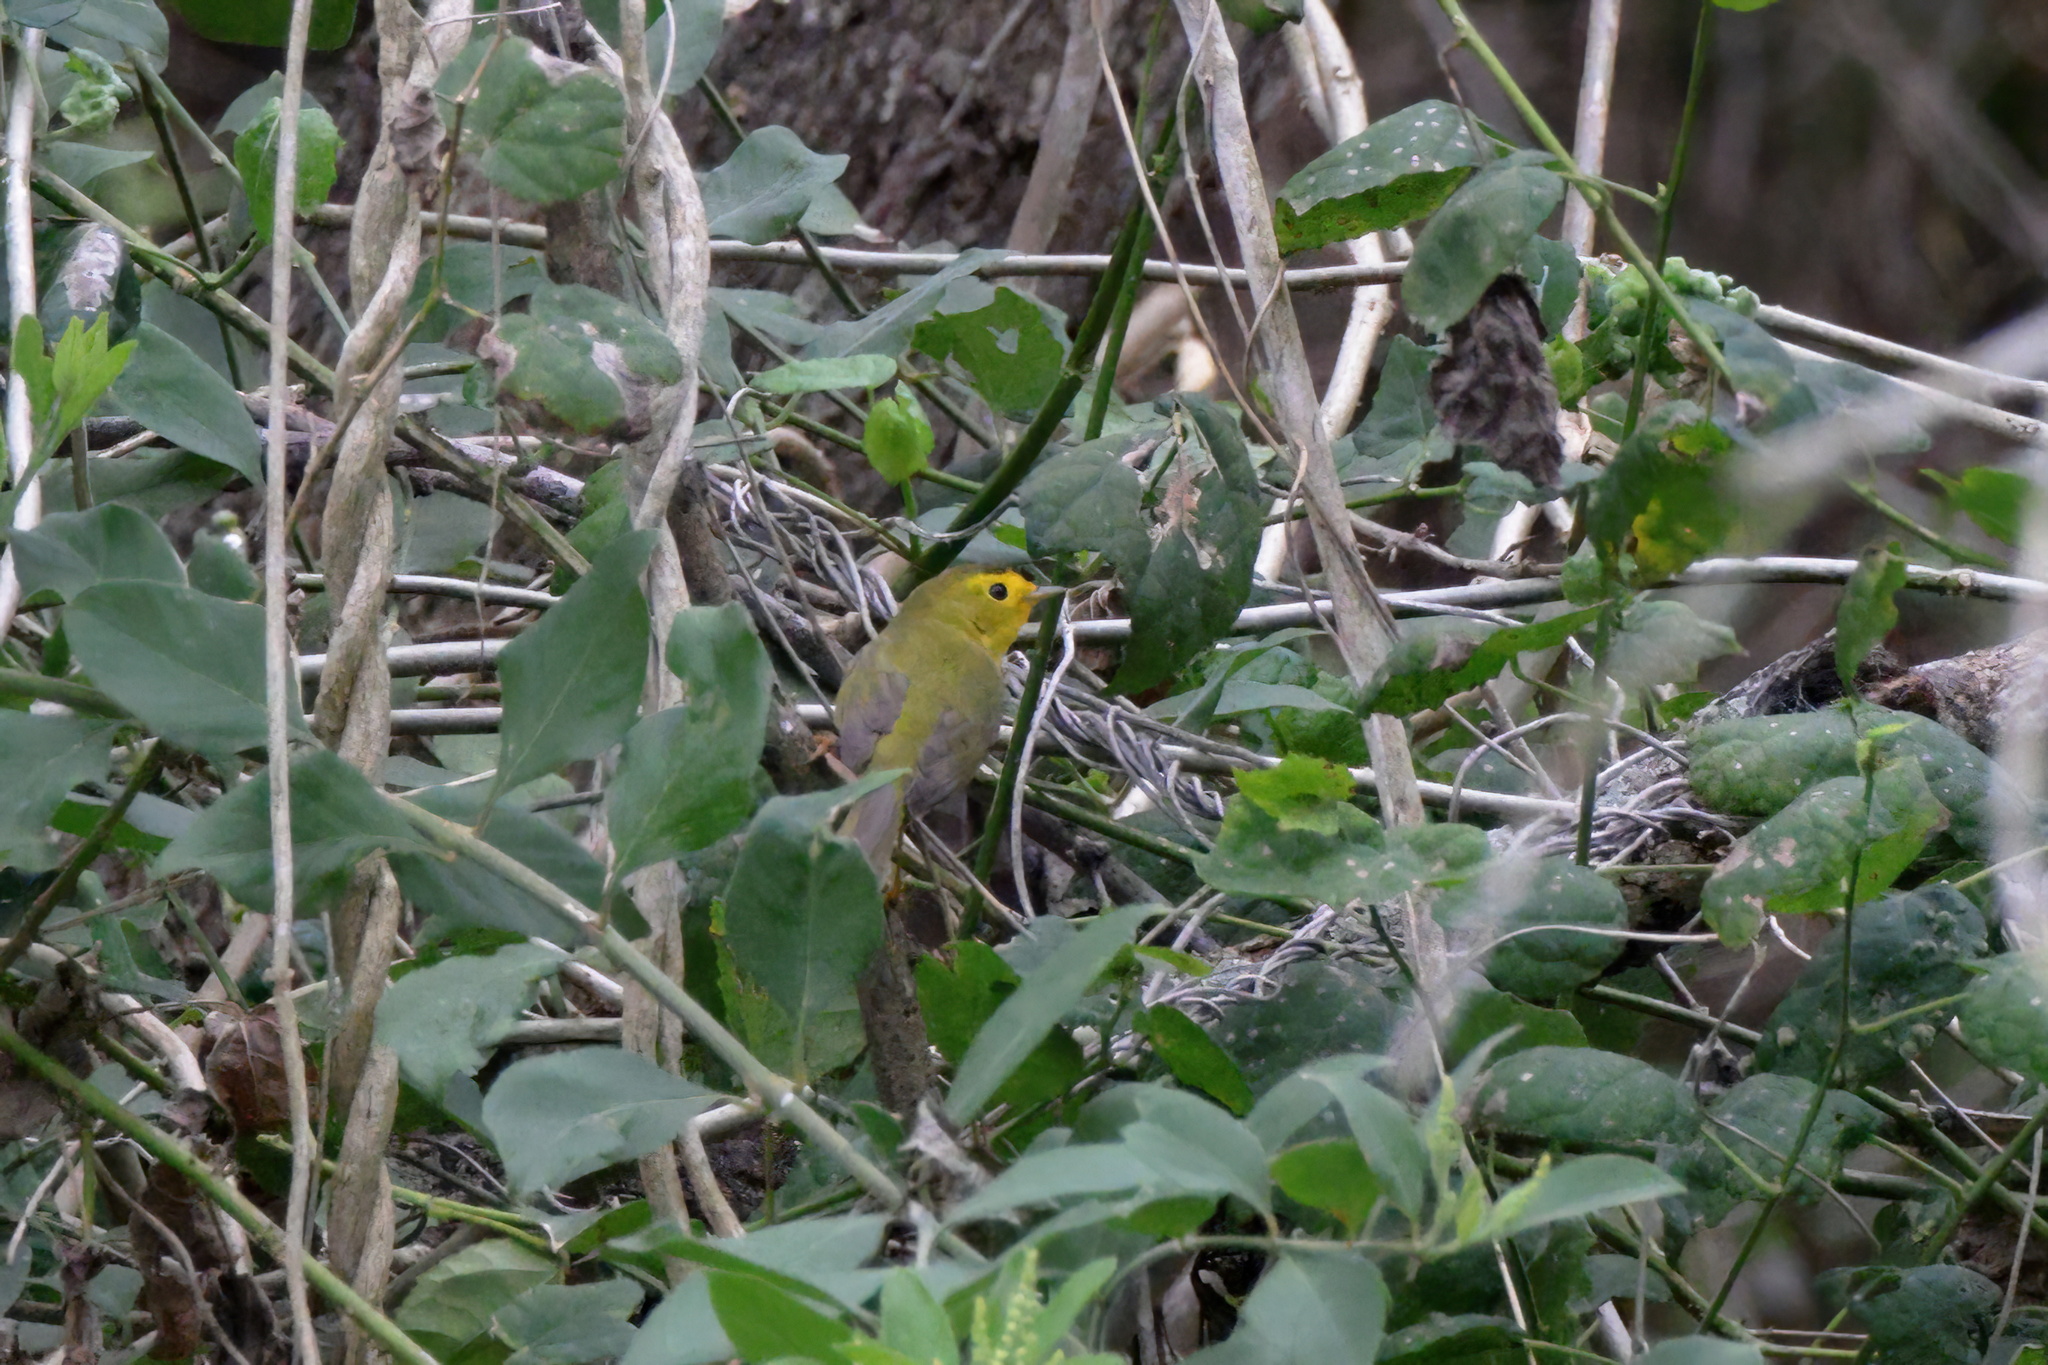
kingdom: Animalia
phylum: Chordata
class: Aves
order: Passeriformes
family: Parulidae
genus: Cardellina
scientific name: Cardellina pusilla
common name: Wilson's warbler
